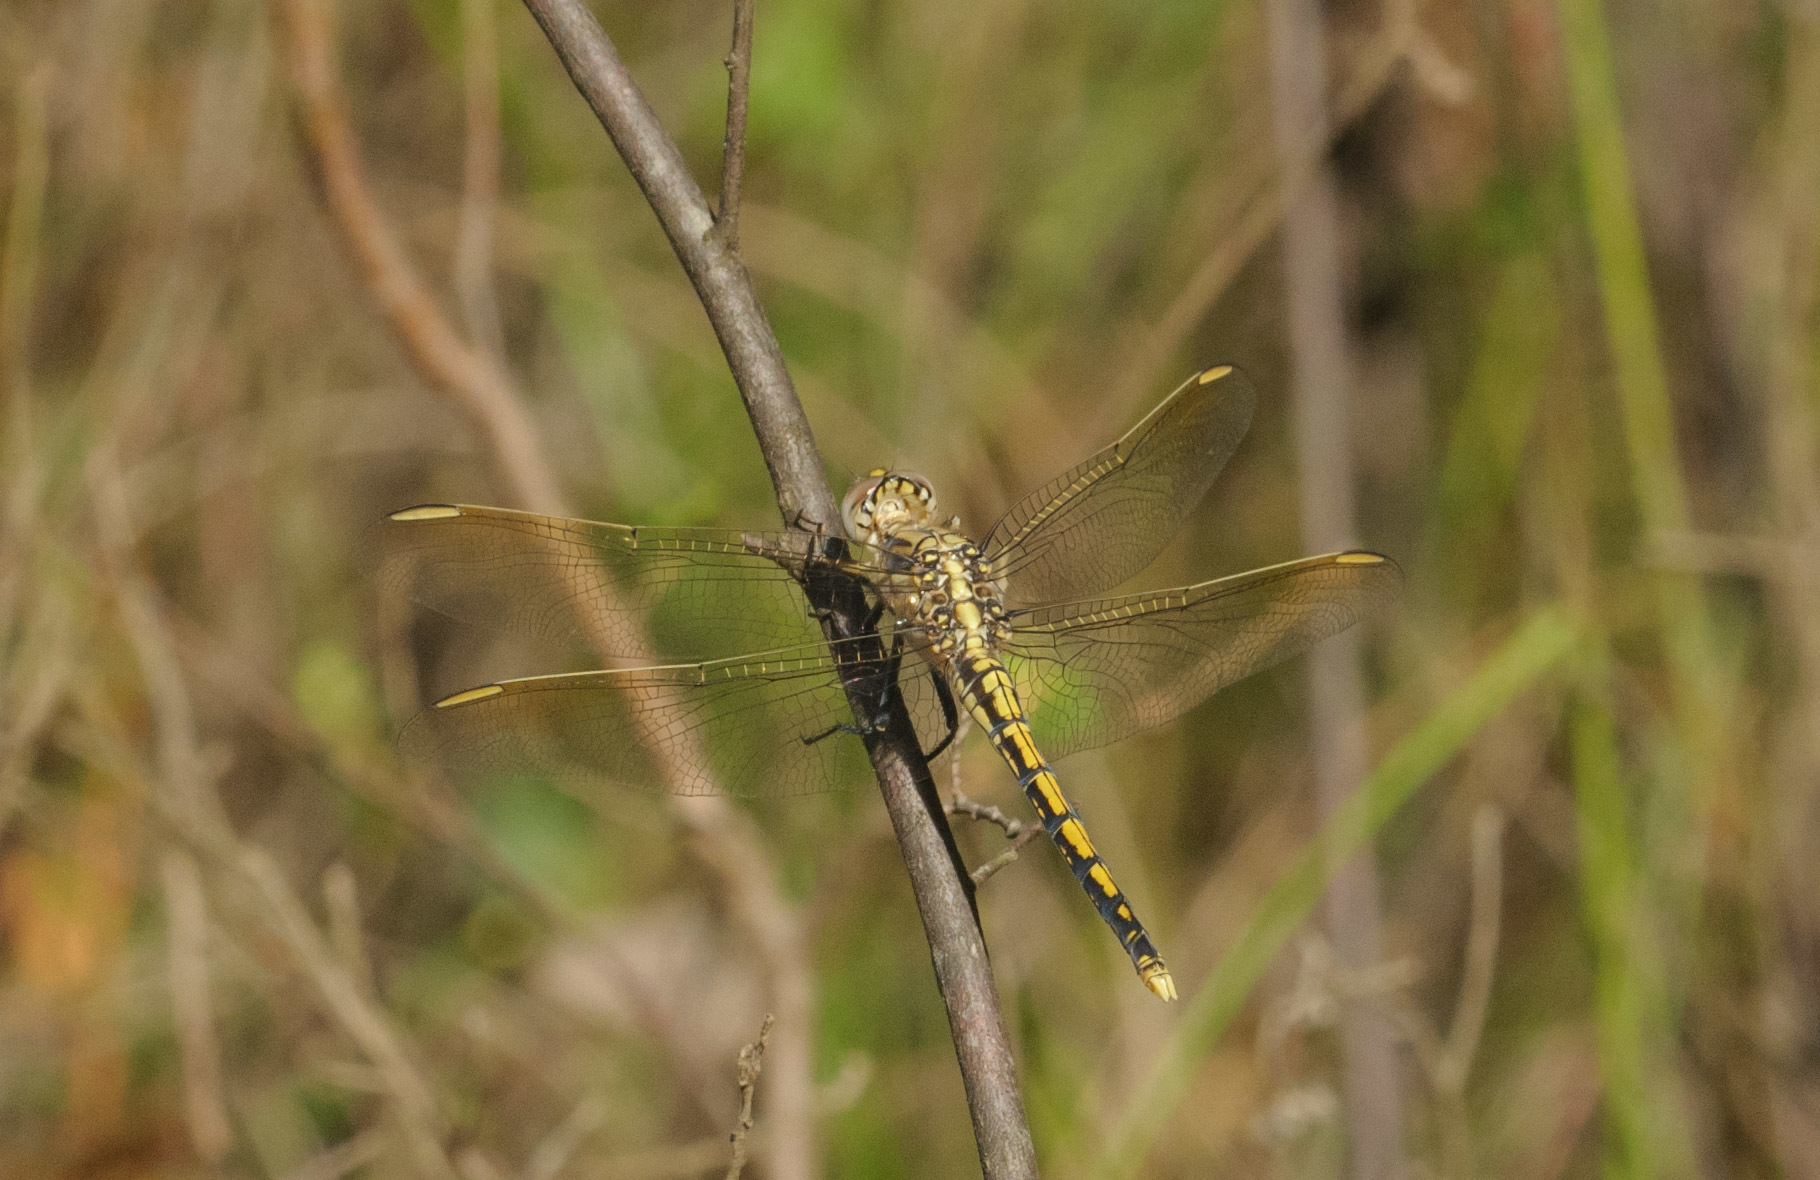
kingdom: Animalia
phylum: Arthropoda
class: Insecta
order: Odonata
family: Libellulidae
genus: Orthetrum
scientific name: Orthetrum caledonicum
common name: Blue skimmer
